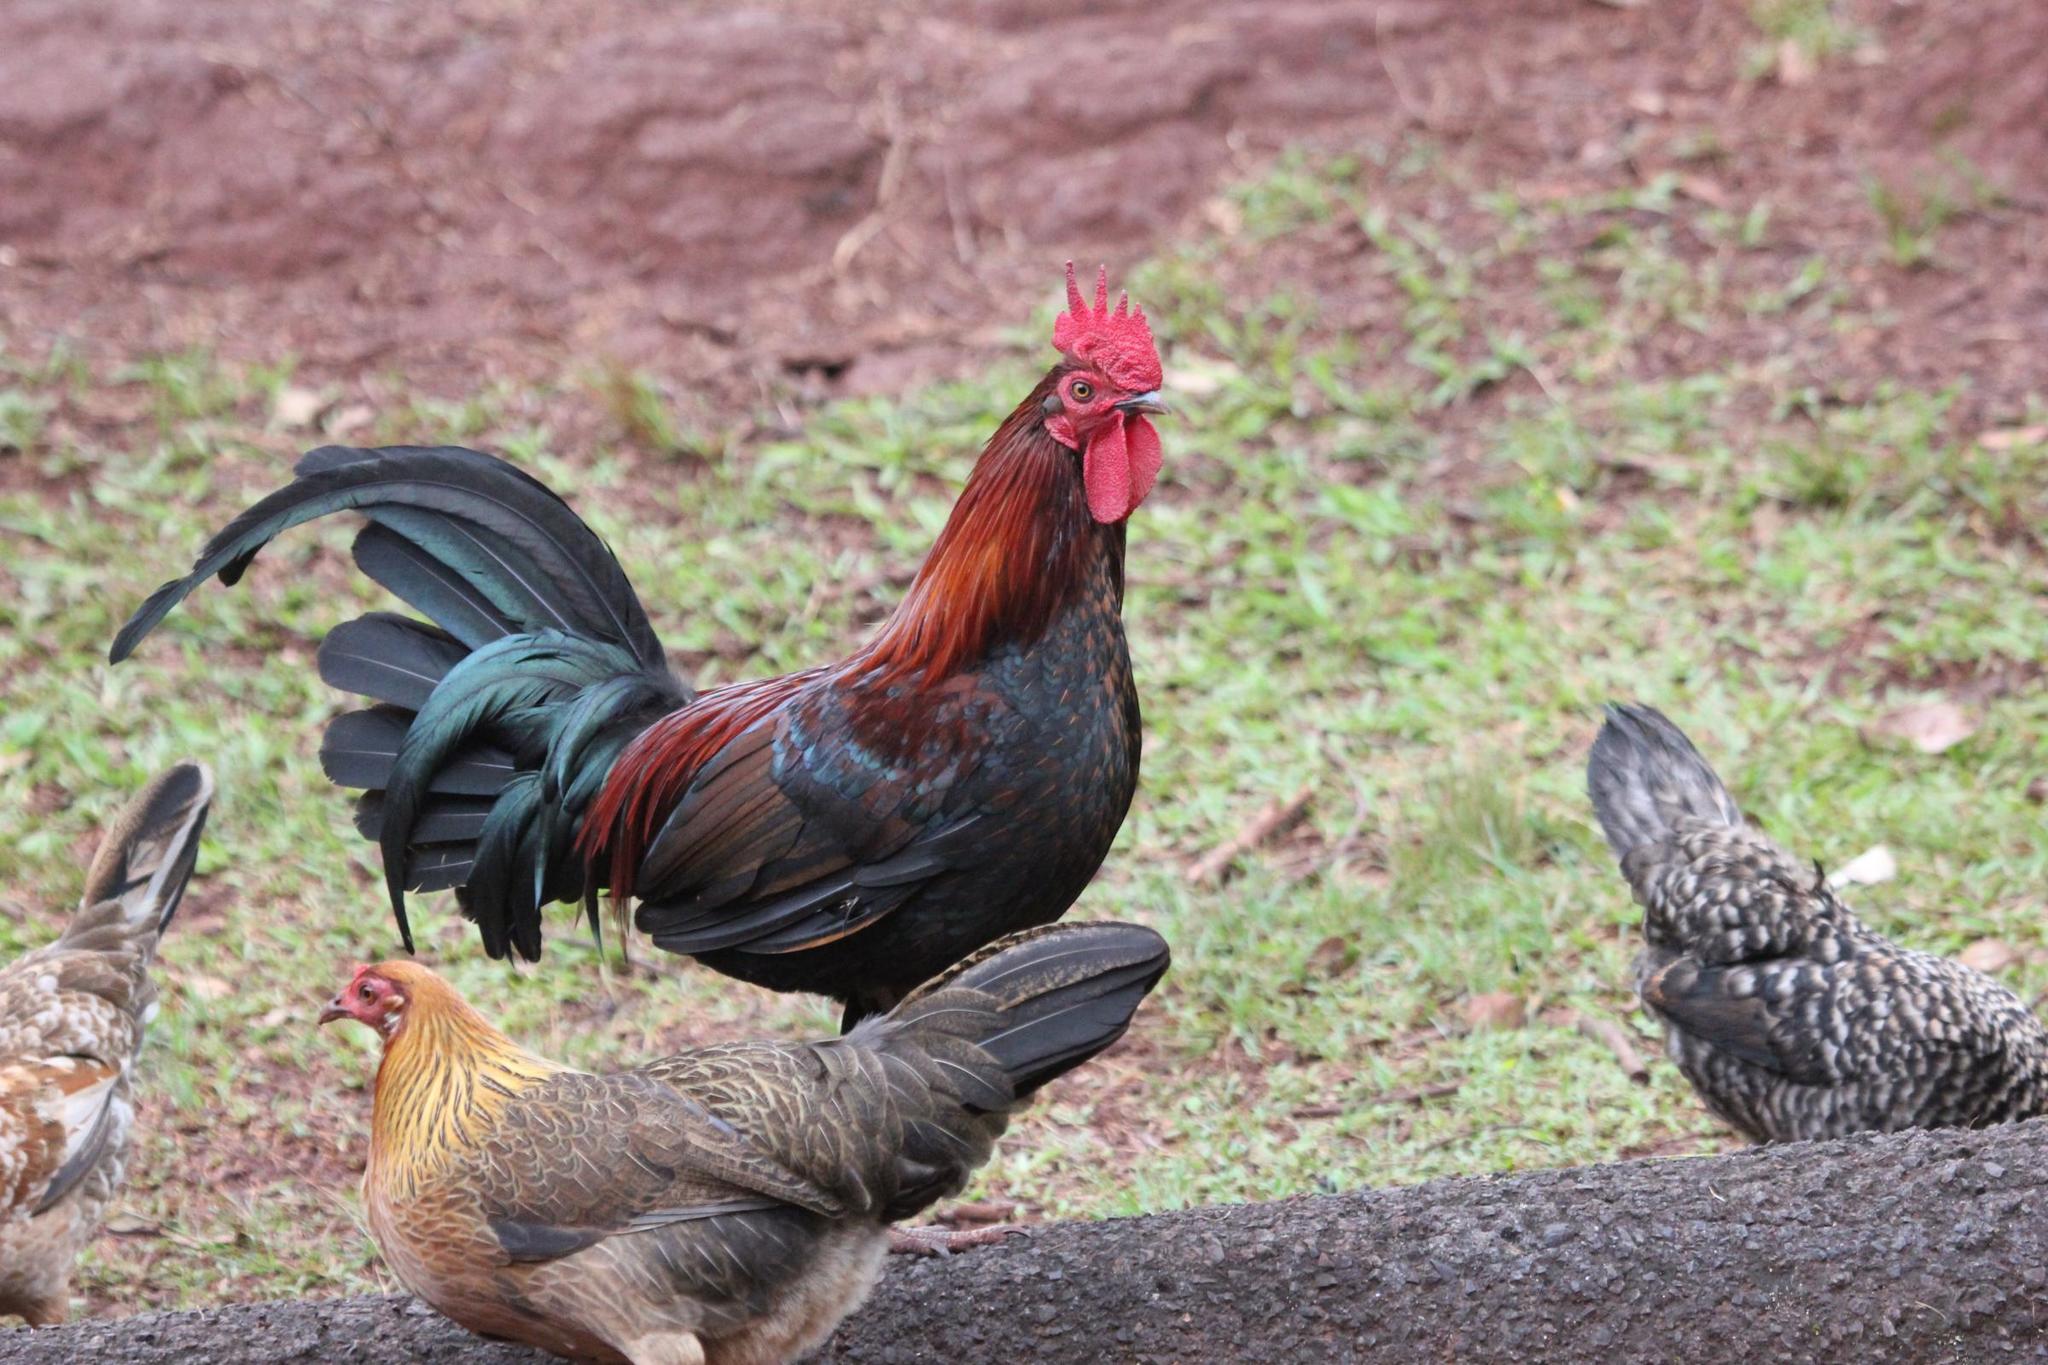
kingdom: Animalia
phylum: Chordata
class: Aves
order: Galliformes
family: Phasianidae
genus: Gallus
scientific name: Gallus gallus
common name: Red junglefowl
